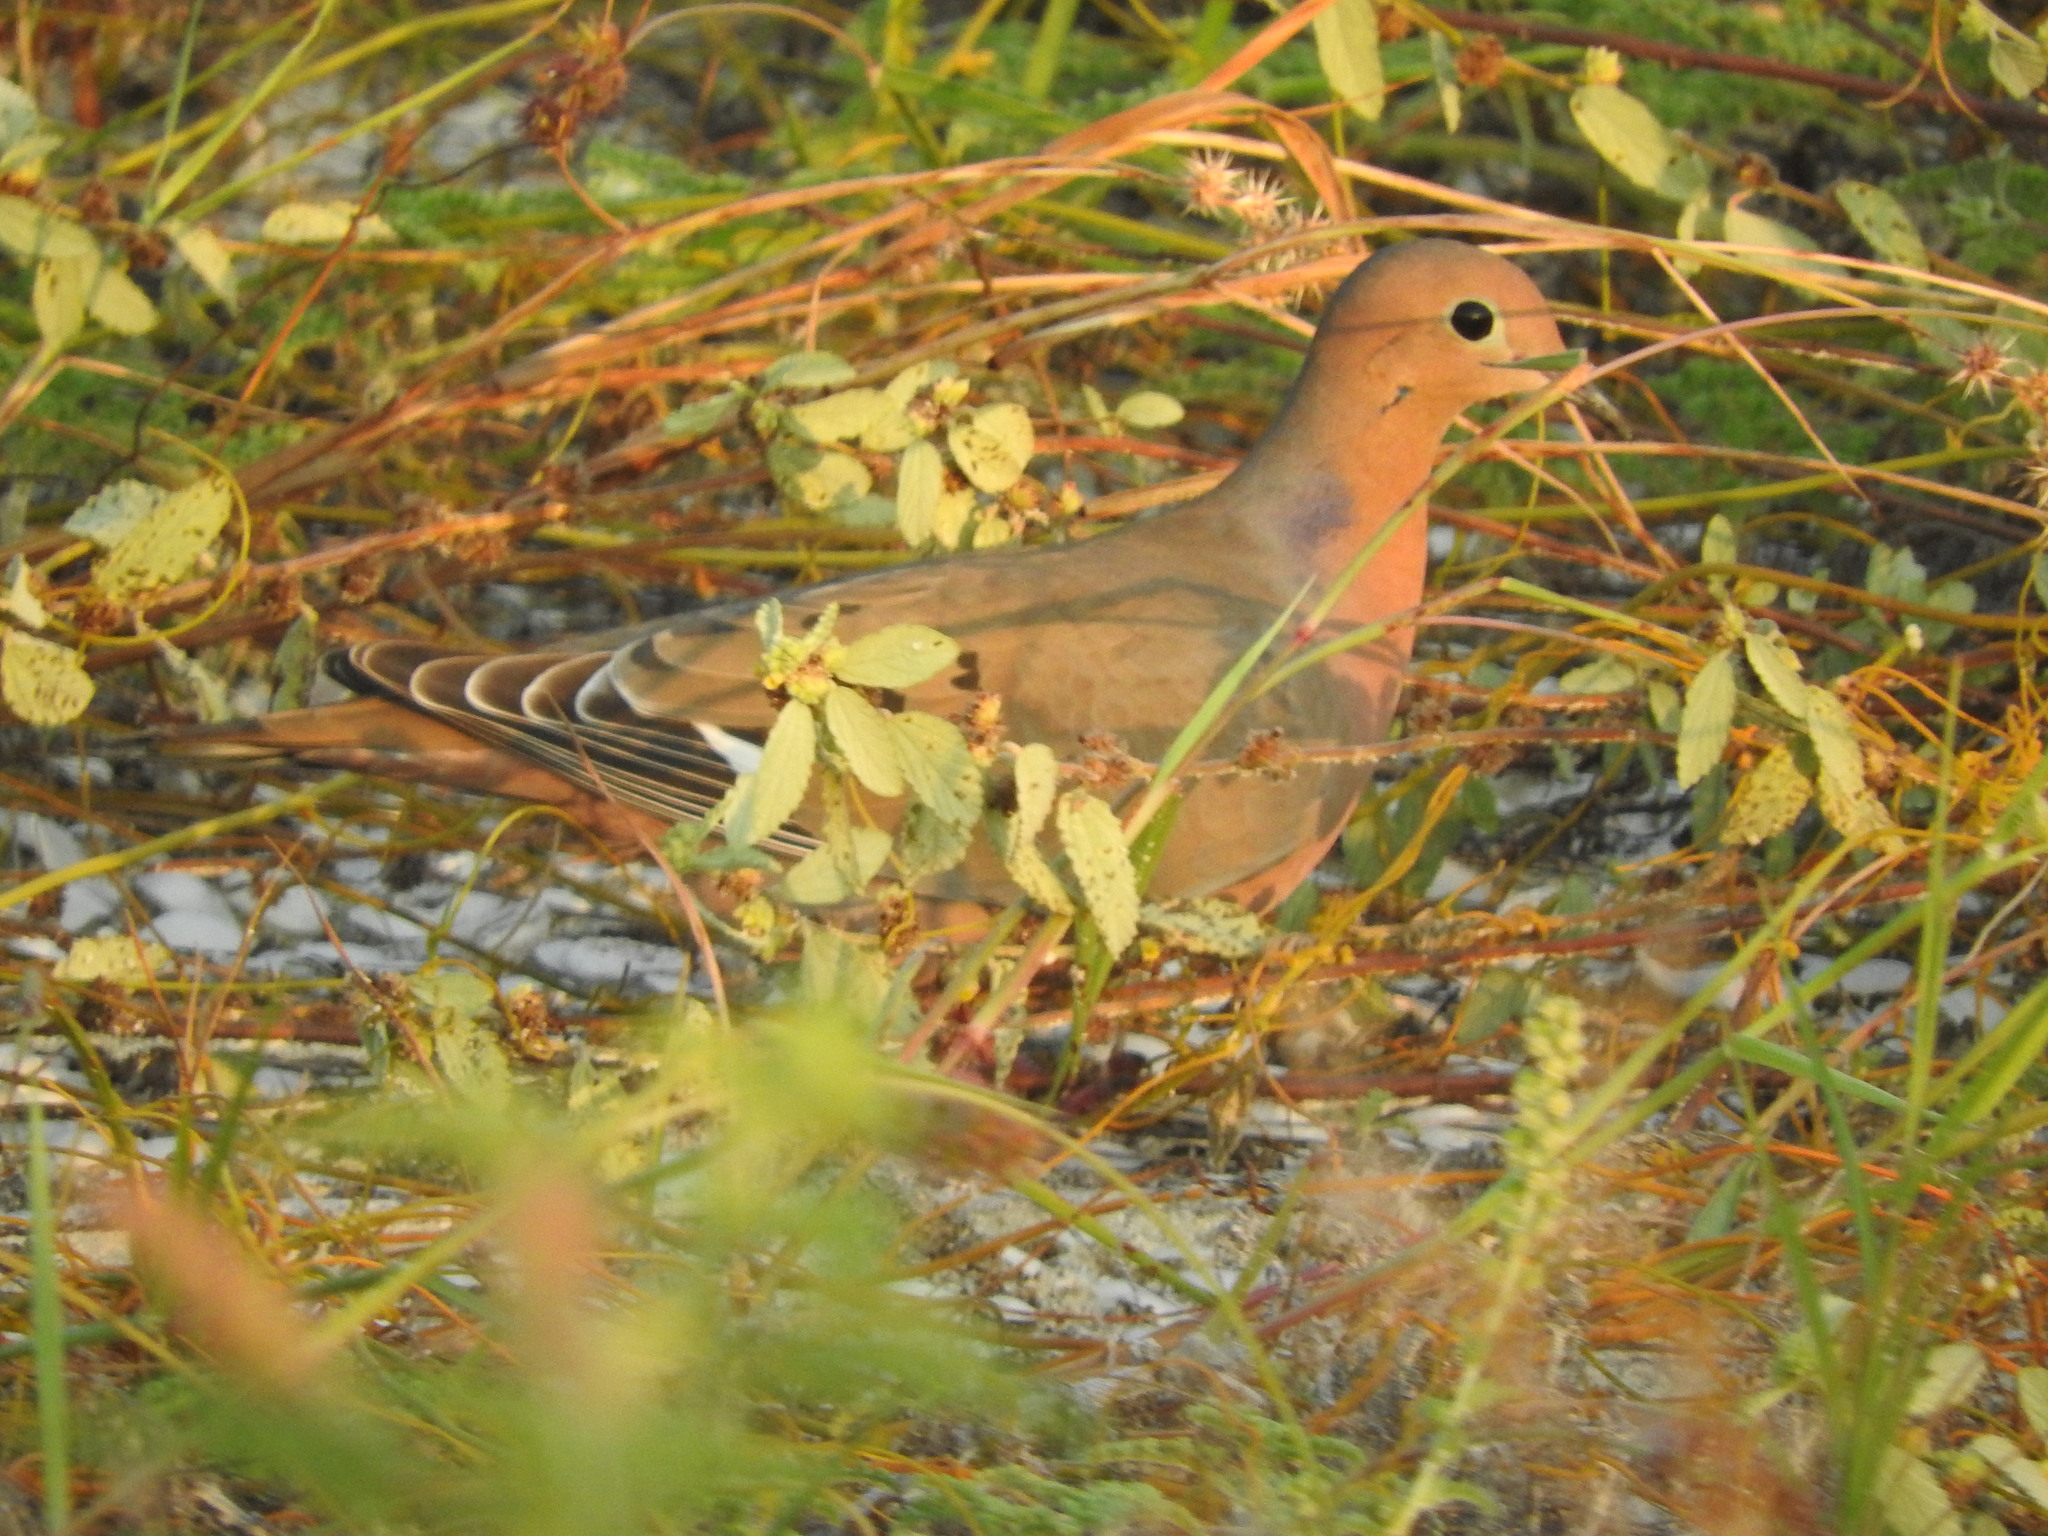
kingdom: Animalia
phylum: Chordata
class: Aves
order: Columbiformes
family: Columbidae
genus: Zenaida
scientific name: Zenaida aurita
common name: Zenaida dove
